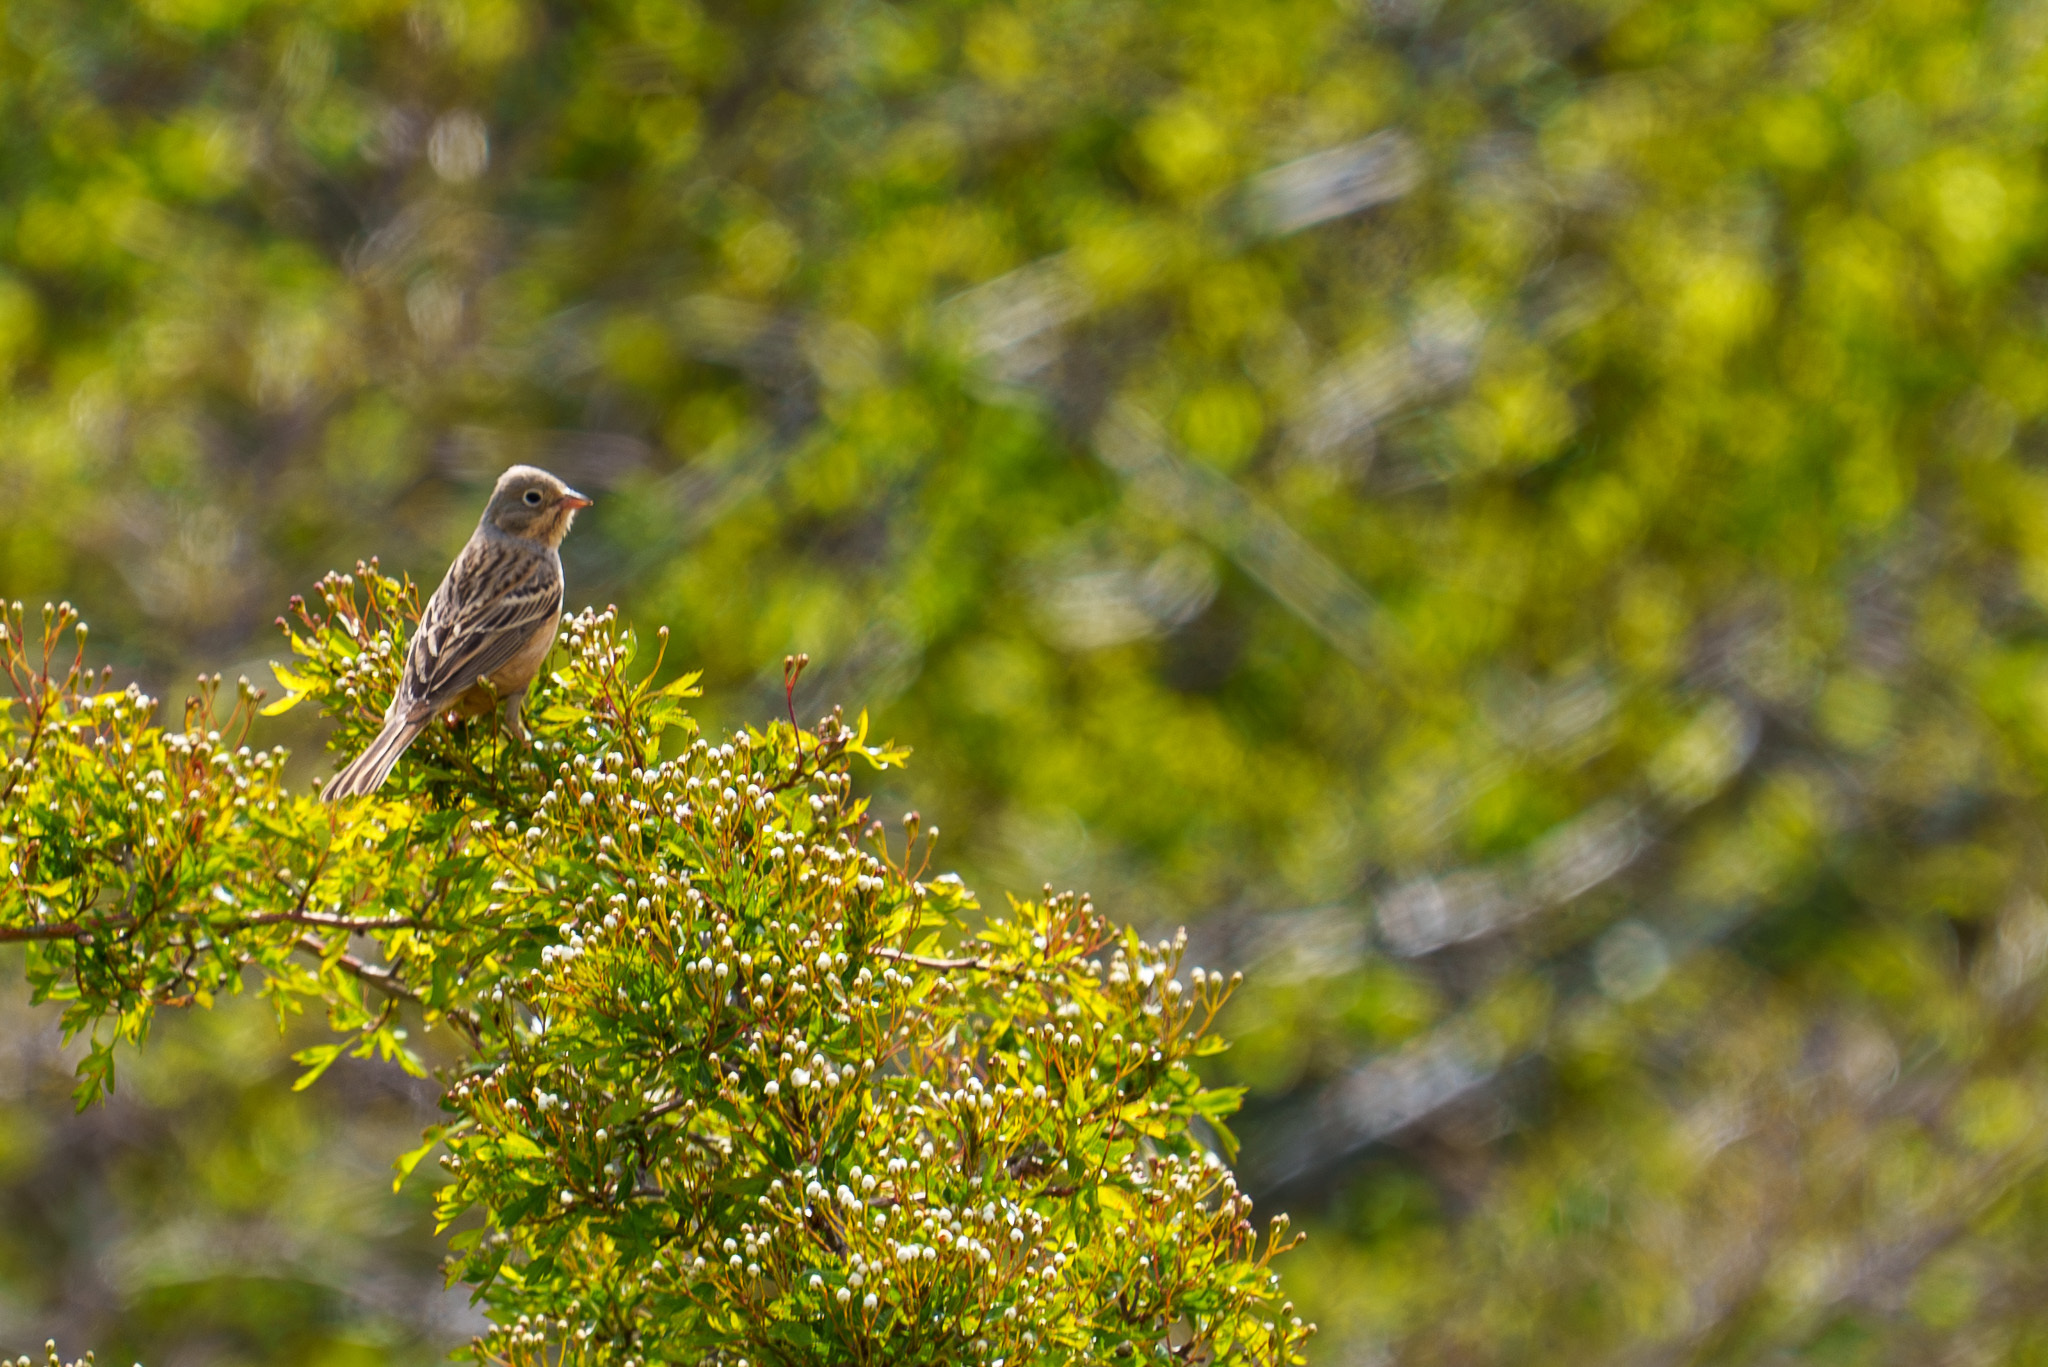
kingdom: Animalia
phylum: Chordata
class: Aves
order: Passeriformes
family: Emberizidae
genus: Emberiza
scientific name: Emberiza hortulana
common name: Ortolan bunting
